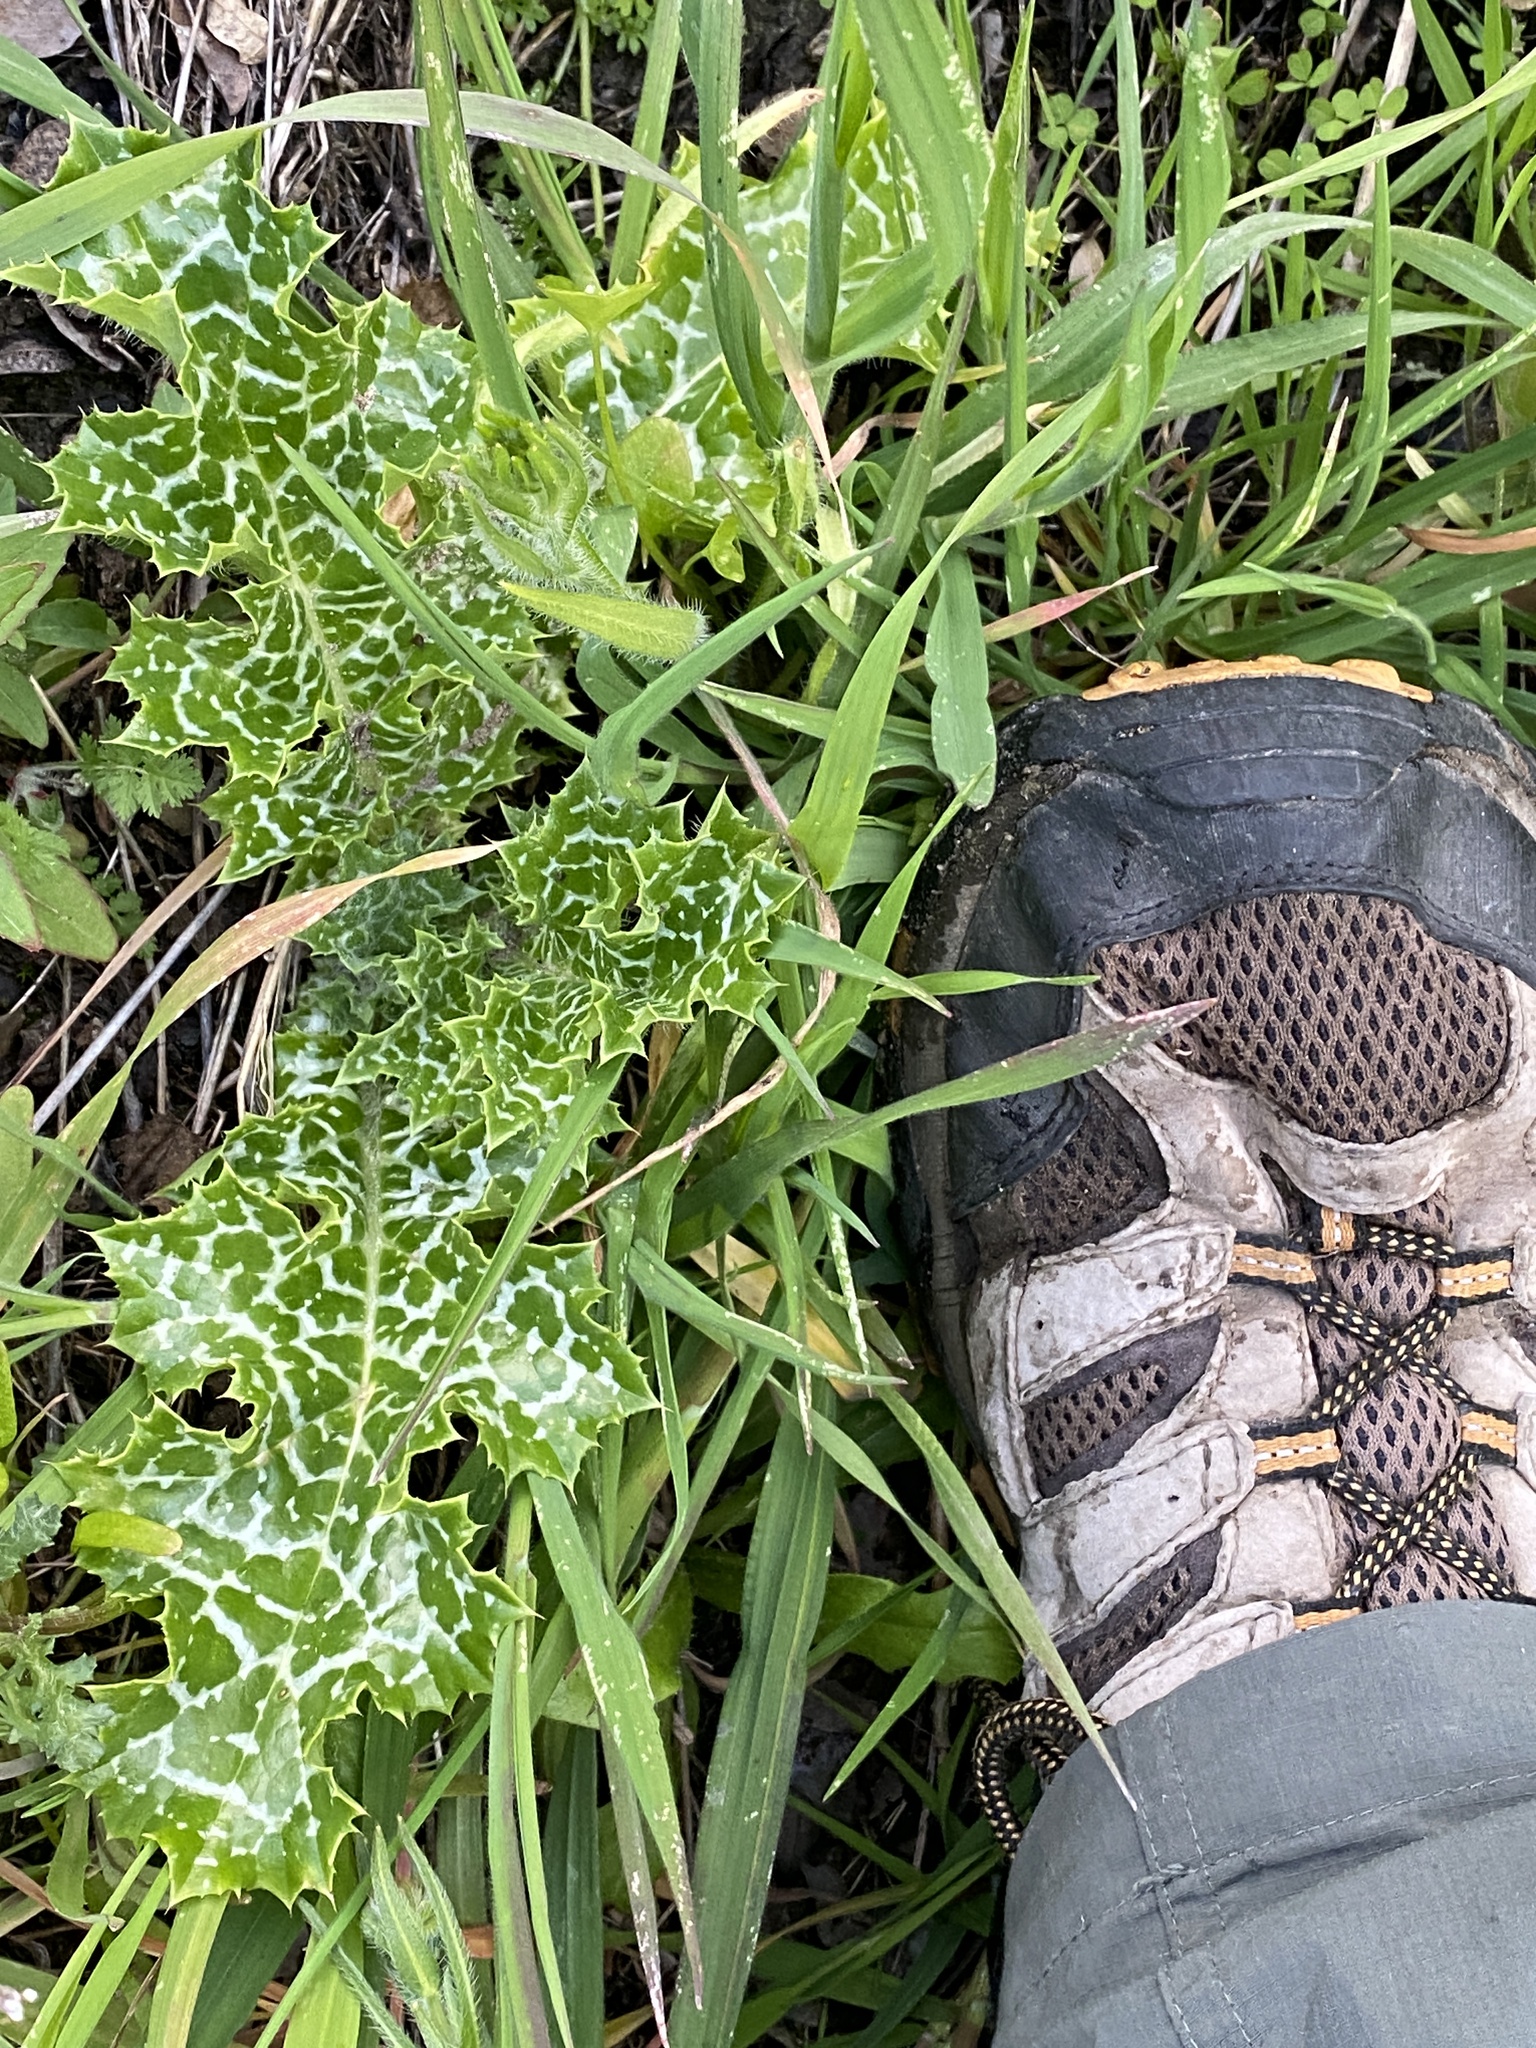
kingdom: Plantae
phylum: Tracheophyta
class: Magnoliopsida
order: Asterales
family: Asteraceae
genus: Silybum
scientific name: Silybum marianum
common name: Milk thistle
